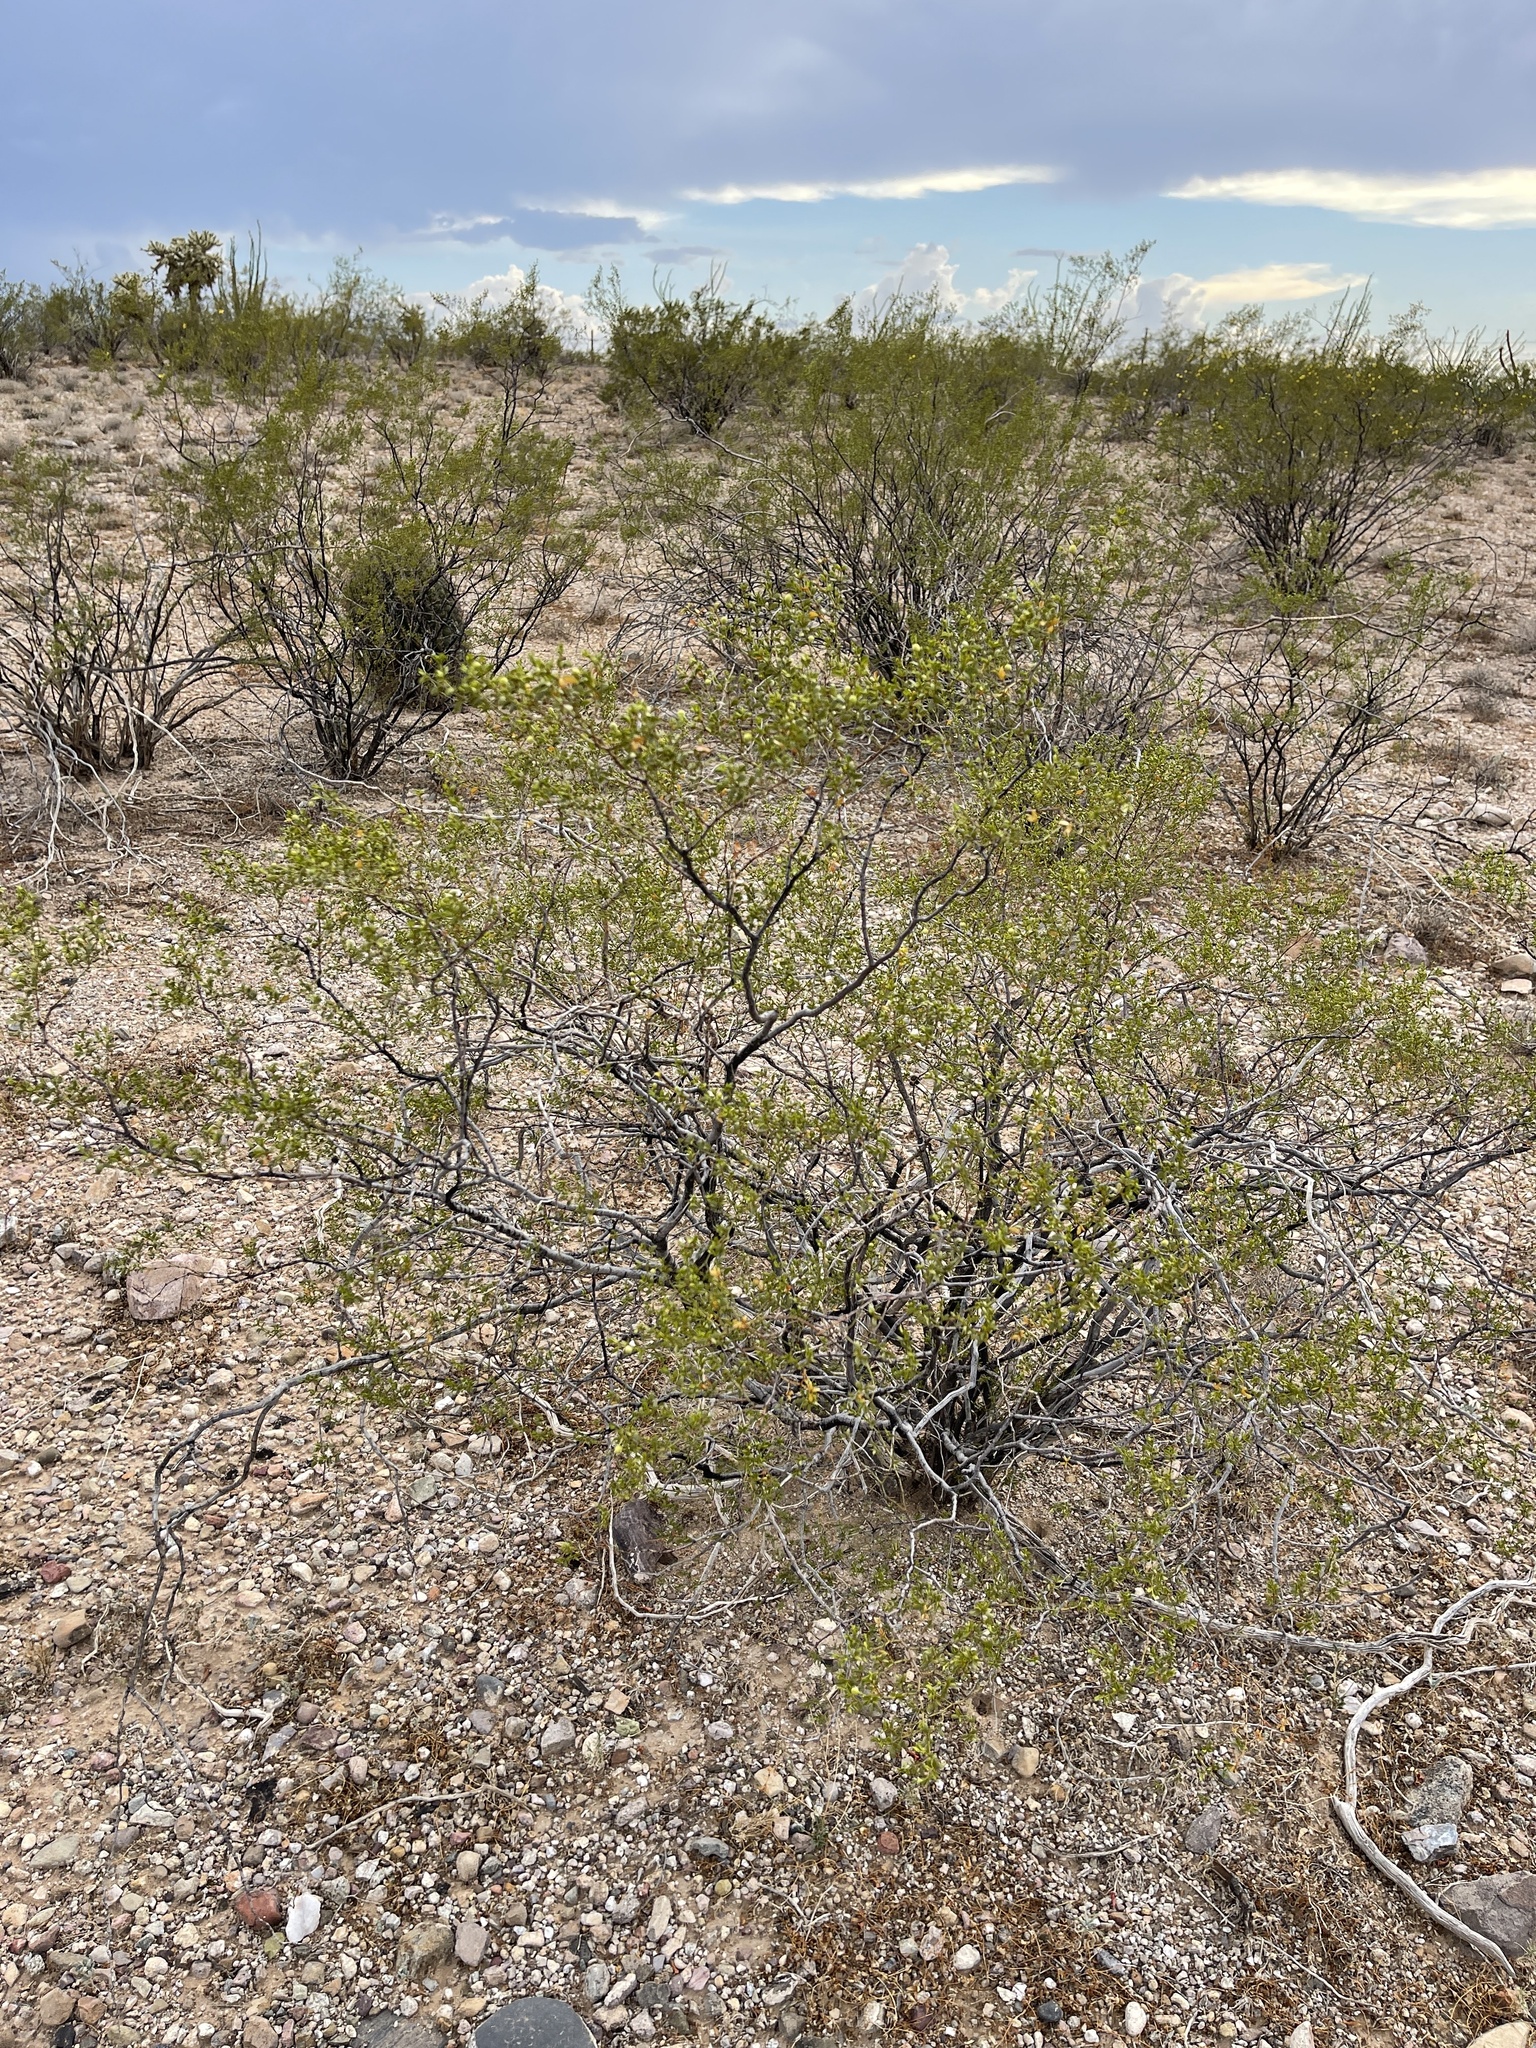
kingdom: Plantae
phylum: Tracheophyta
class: Magnoliopsida
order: Zygophyllales
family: Zygophyllaceae
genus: Larrea
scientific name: Larrea tridentata
